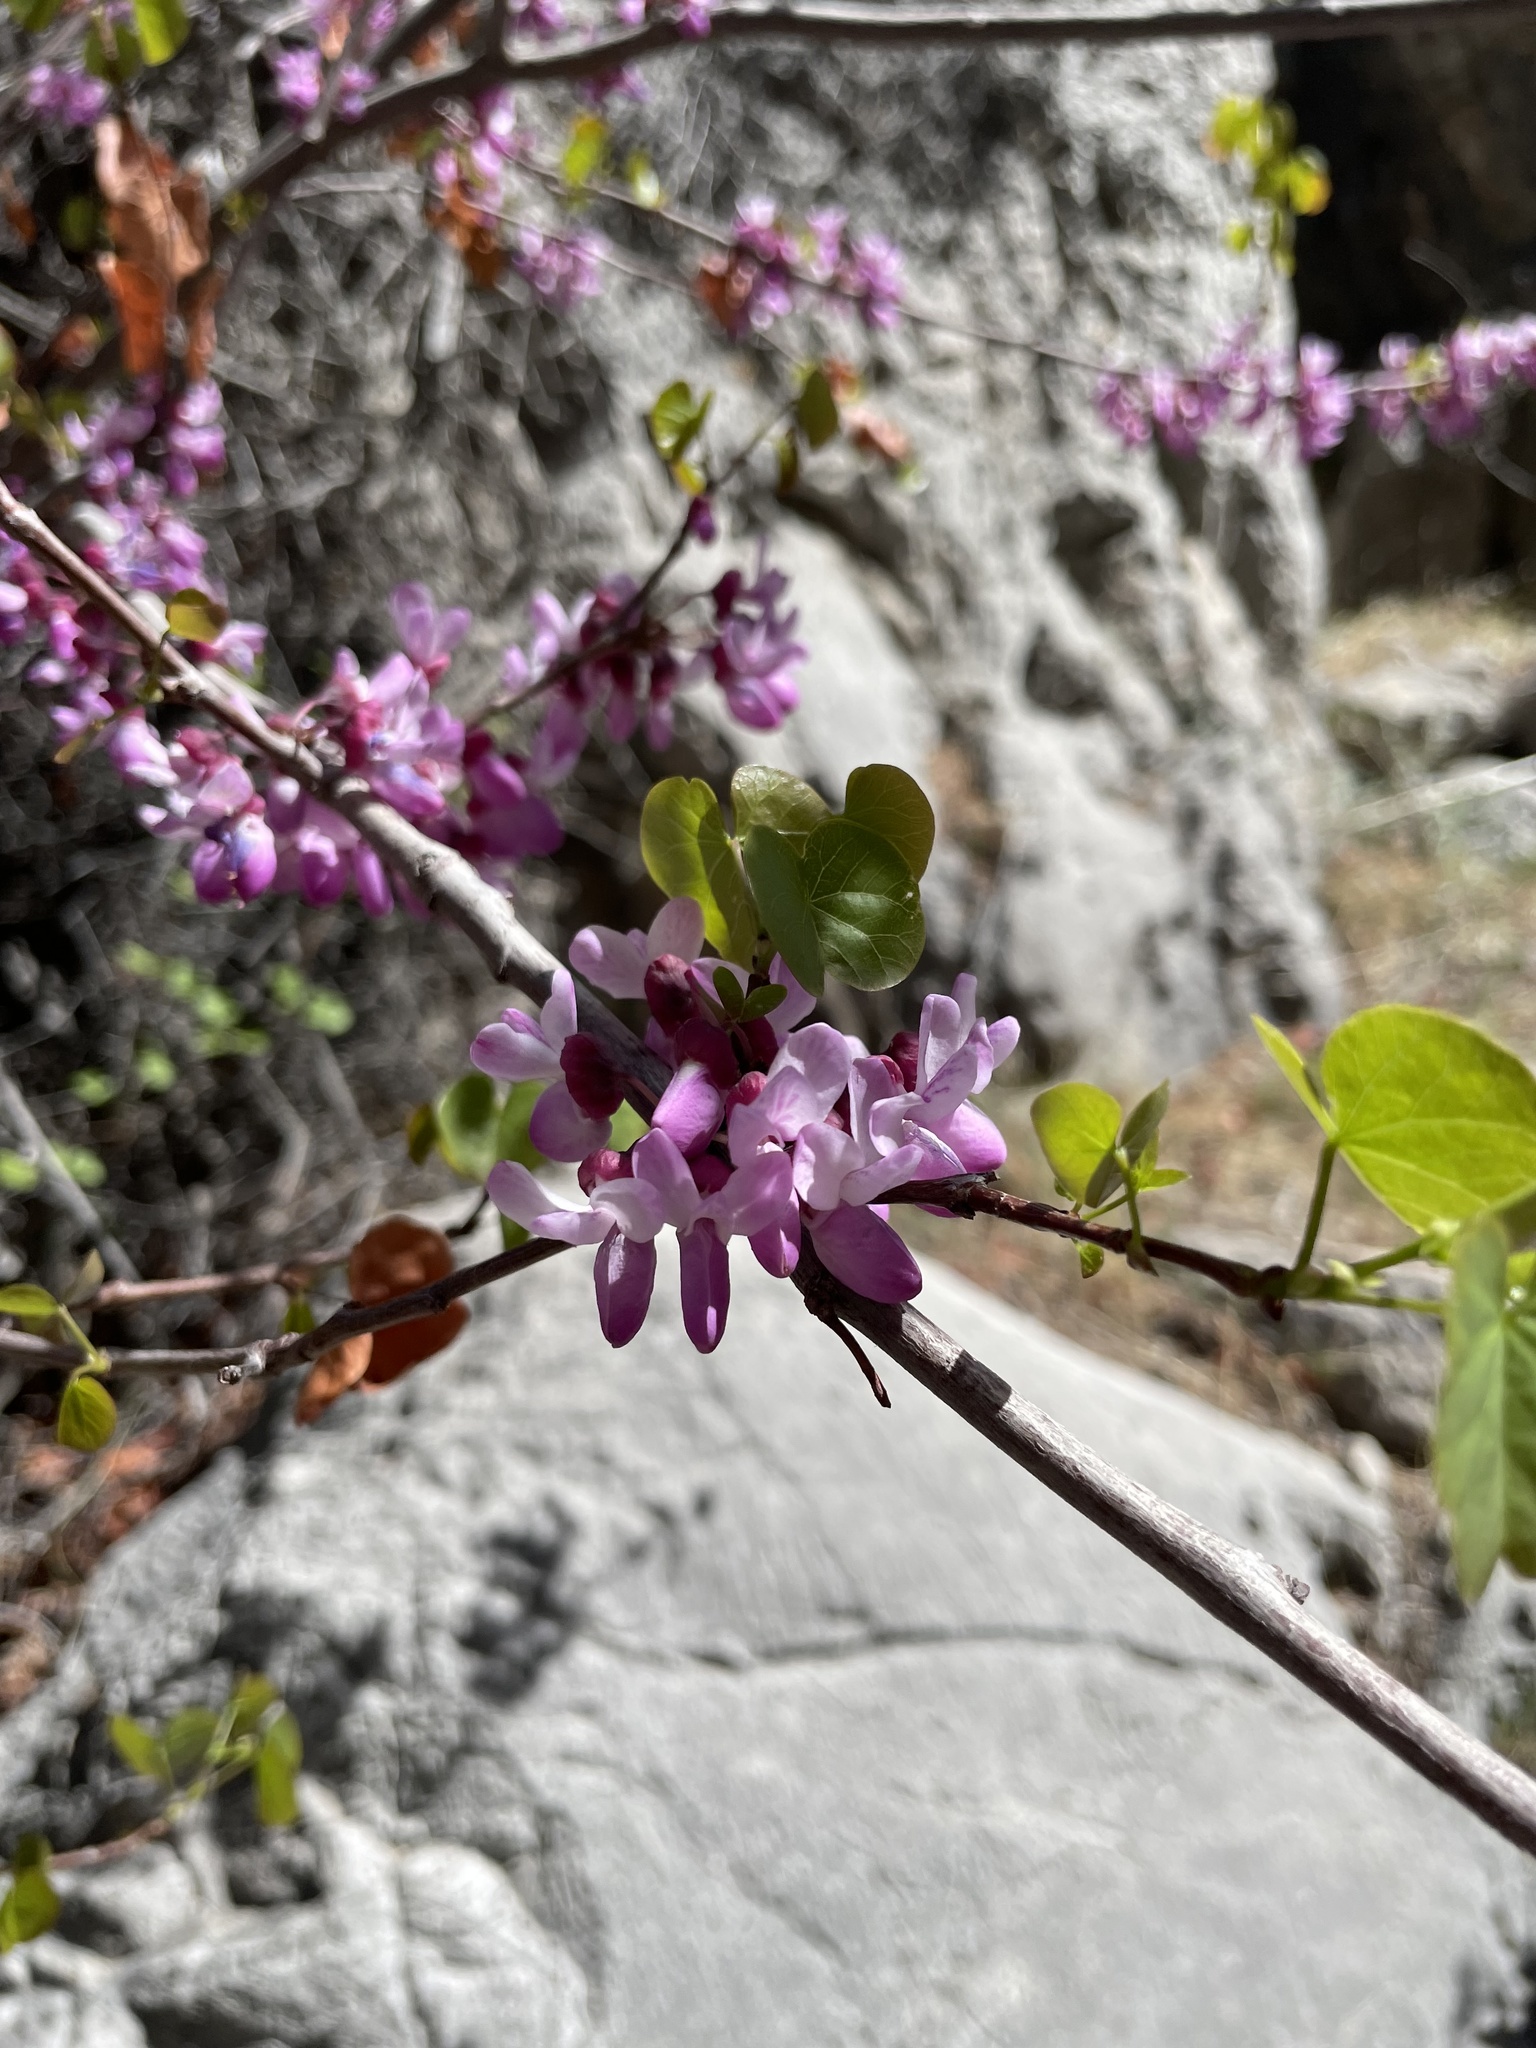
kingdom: Plantae
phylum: Tracheophyta
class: Magnoliopsida
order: Fabales
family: Fabaceae
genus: Cercis
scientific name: Cercis occidentalis
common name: California redbud
